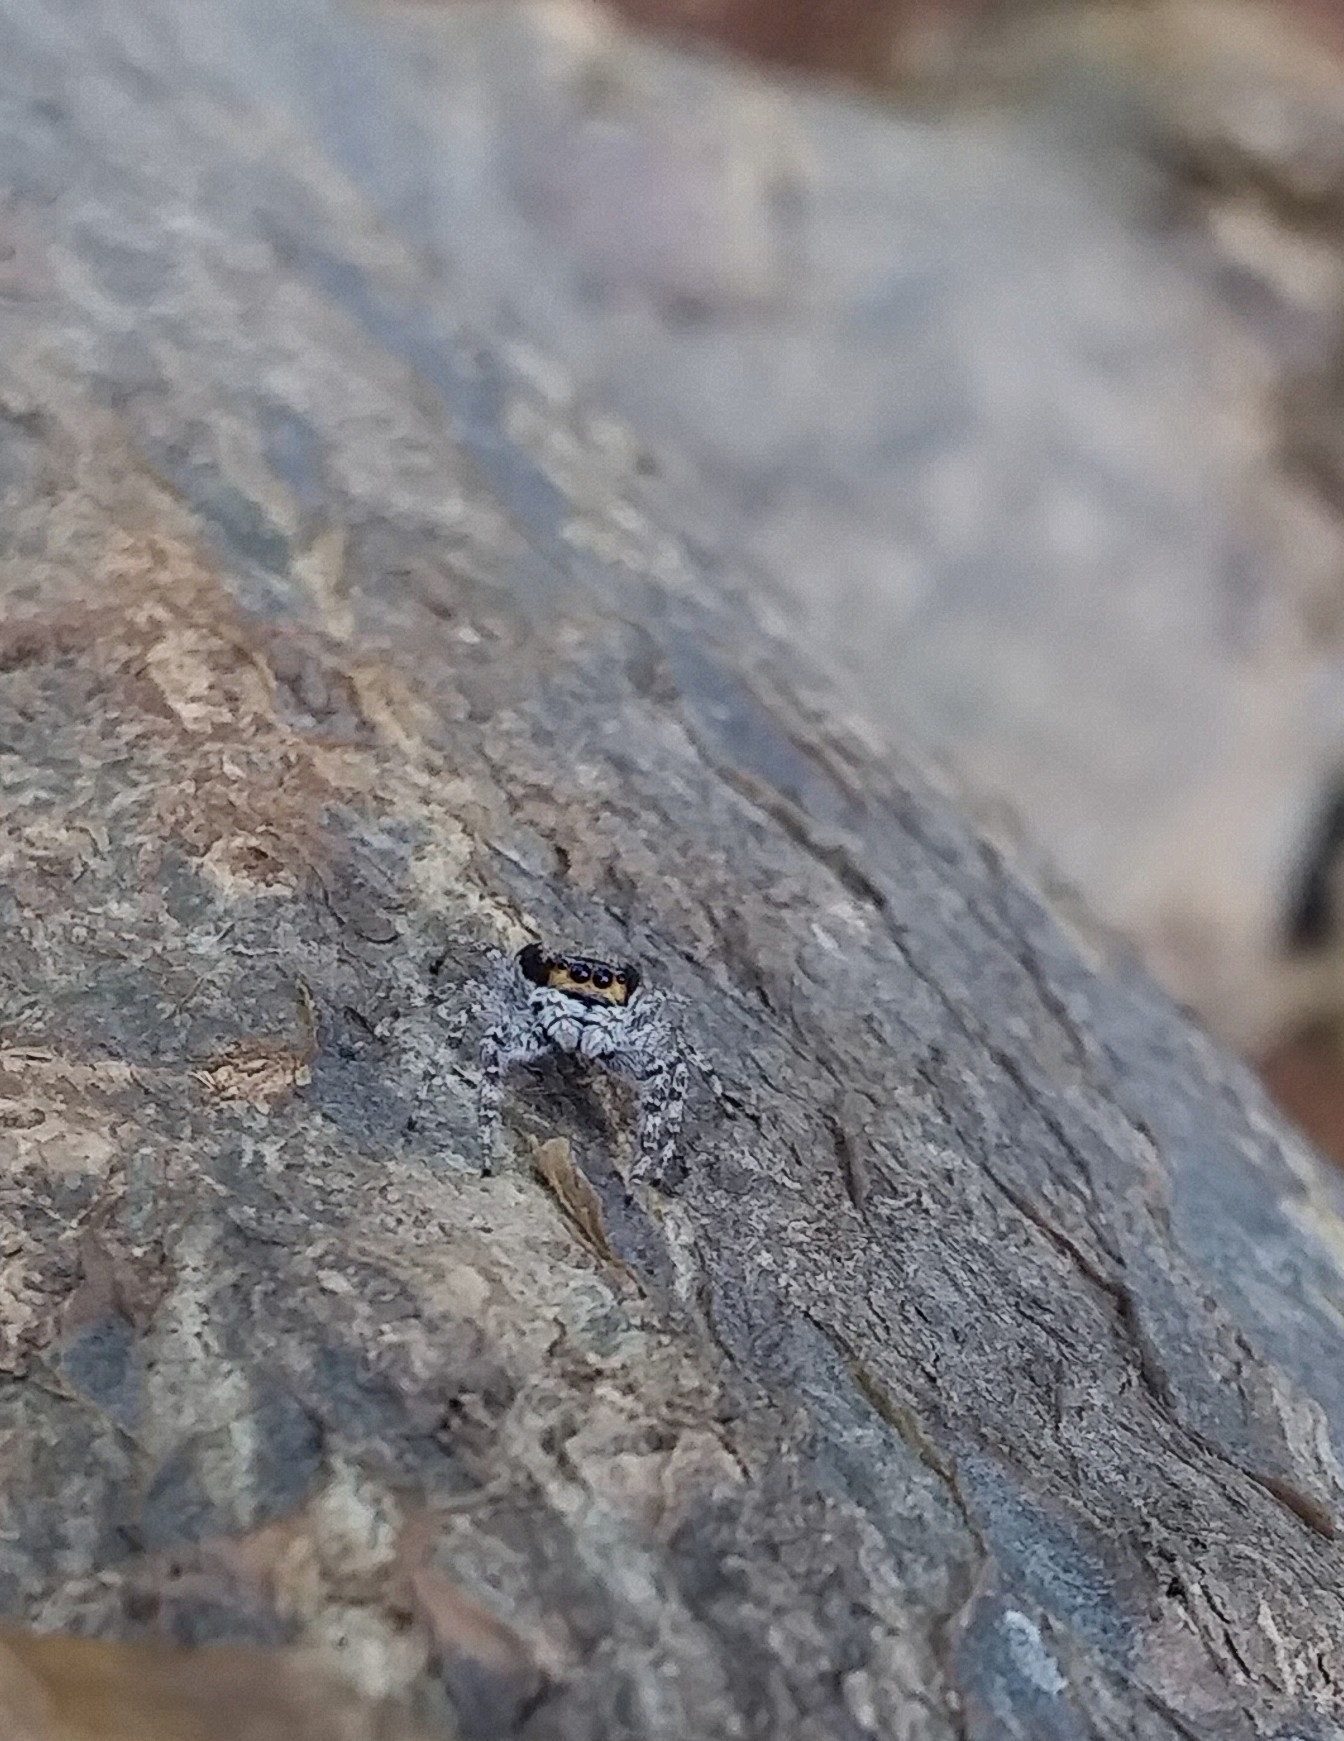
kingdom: Animalia
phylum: Arthropoda
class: Arachnida
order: Araneae
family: Salticidae
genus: Menemerus
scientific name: Menemerus bivittatus
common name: Gray wall jumper
